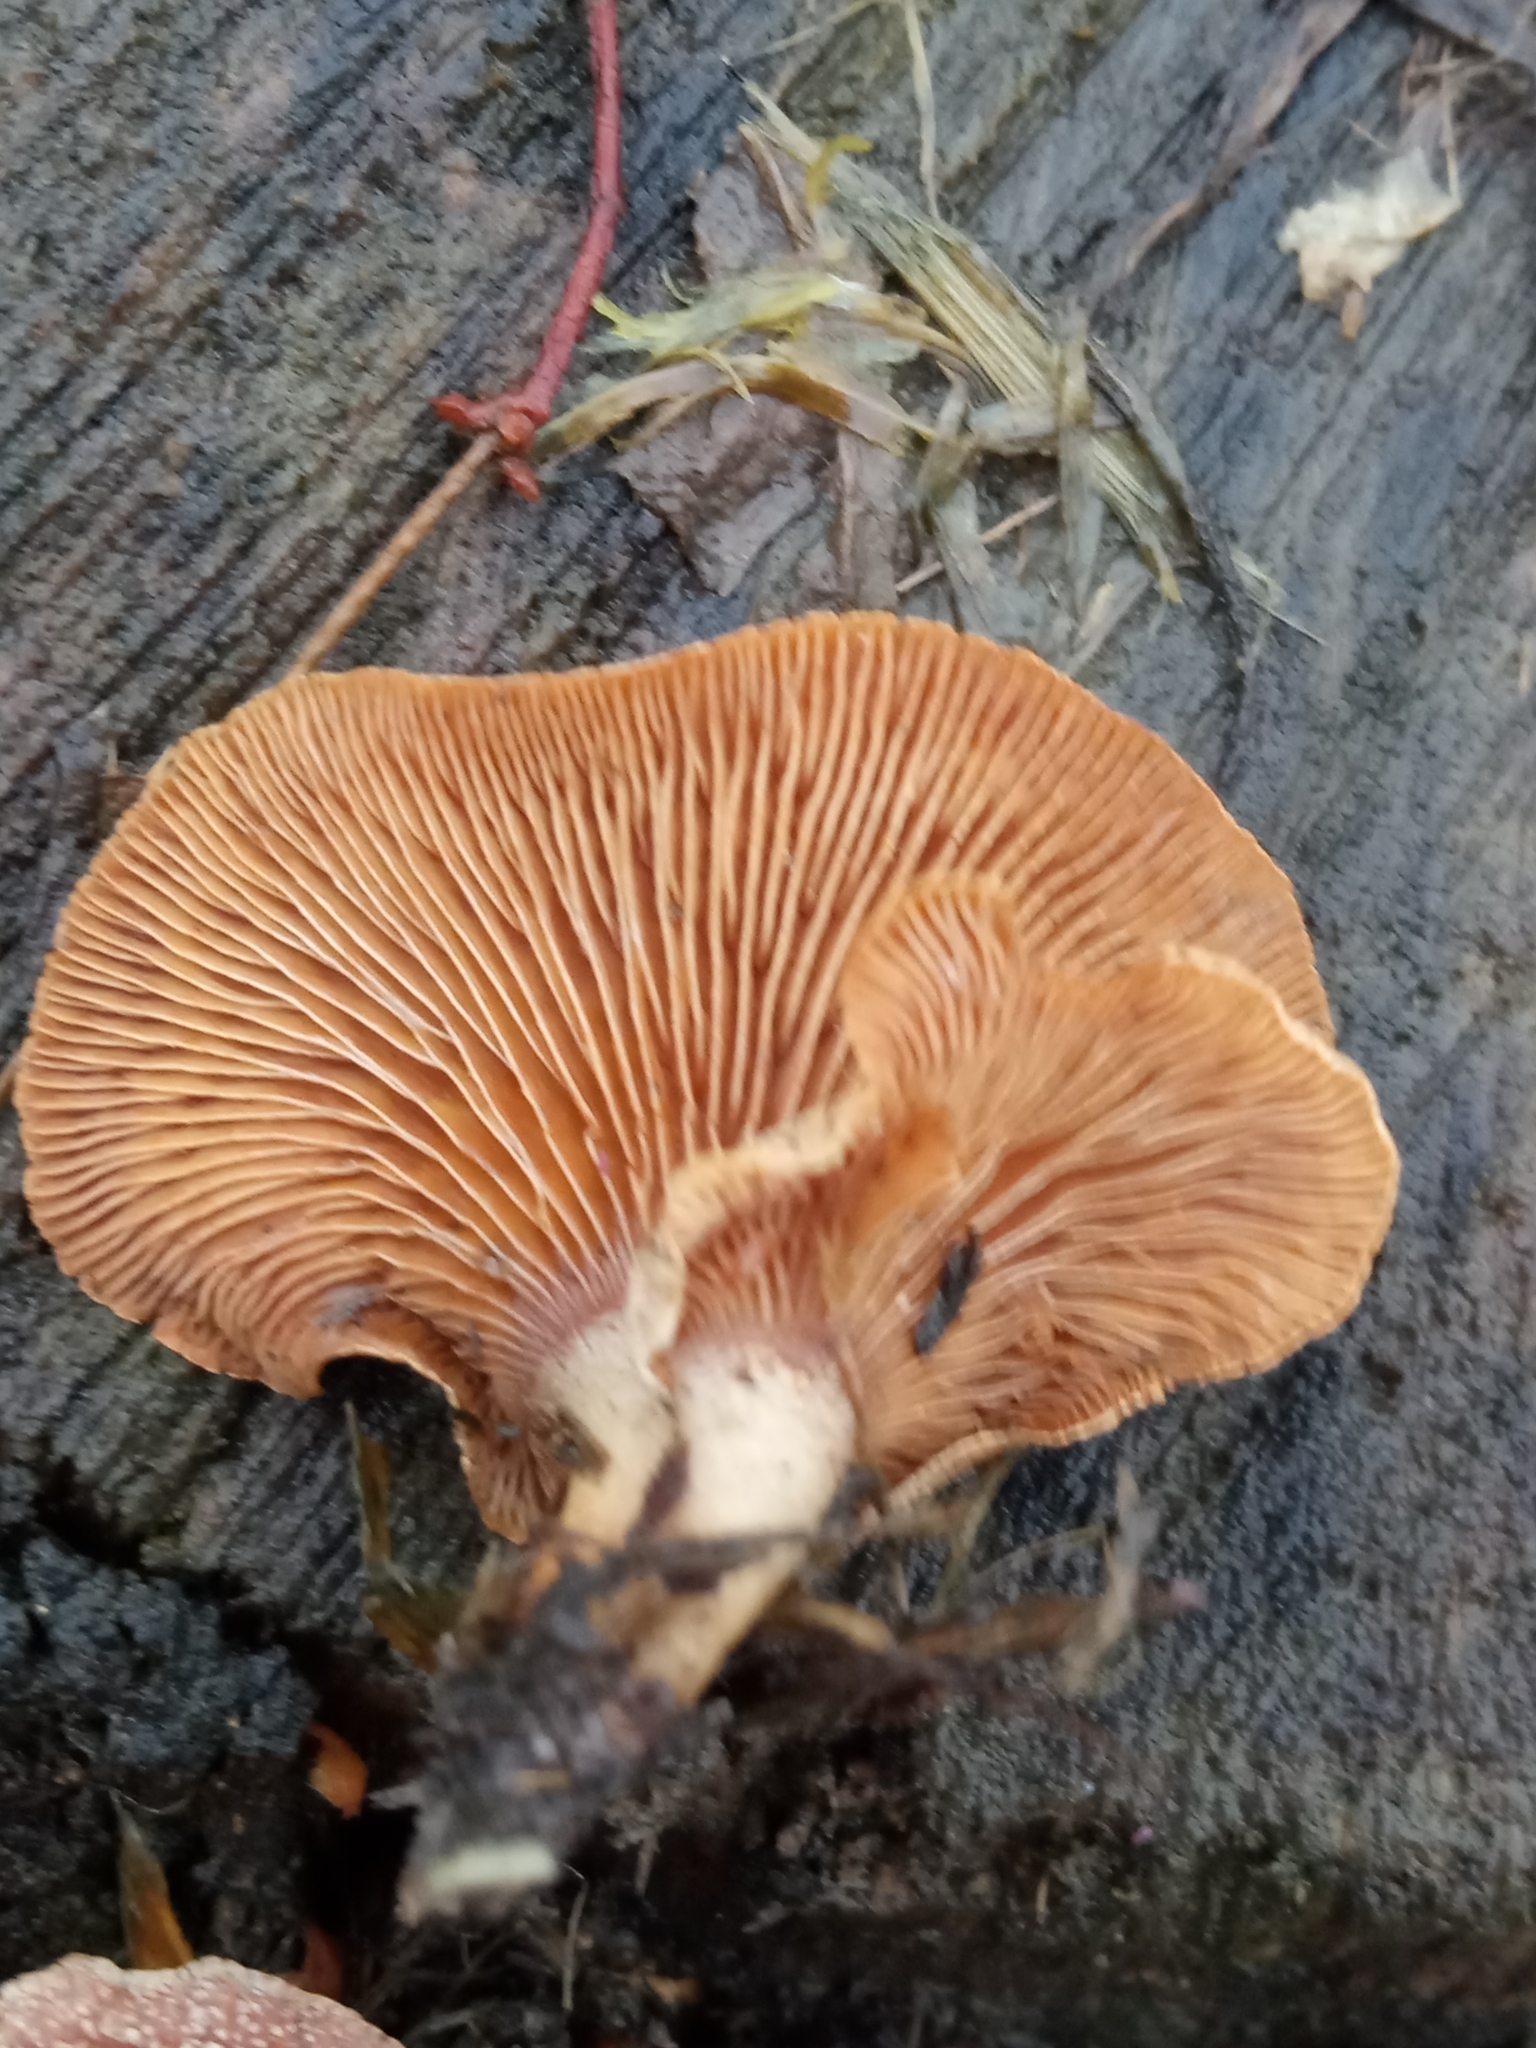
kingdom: Fungi
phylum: Basidiomycota
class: Agaricomycetes
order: Agaricales
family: Mycenaceae
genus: Panellus
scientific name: Panellus stipticus
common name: Bitter oysterling
